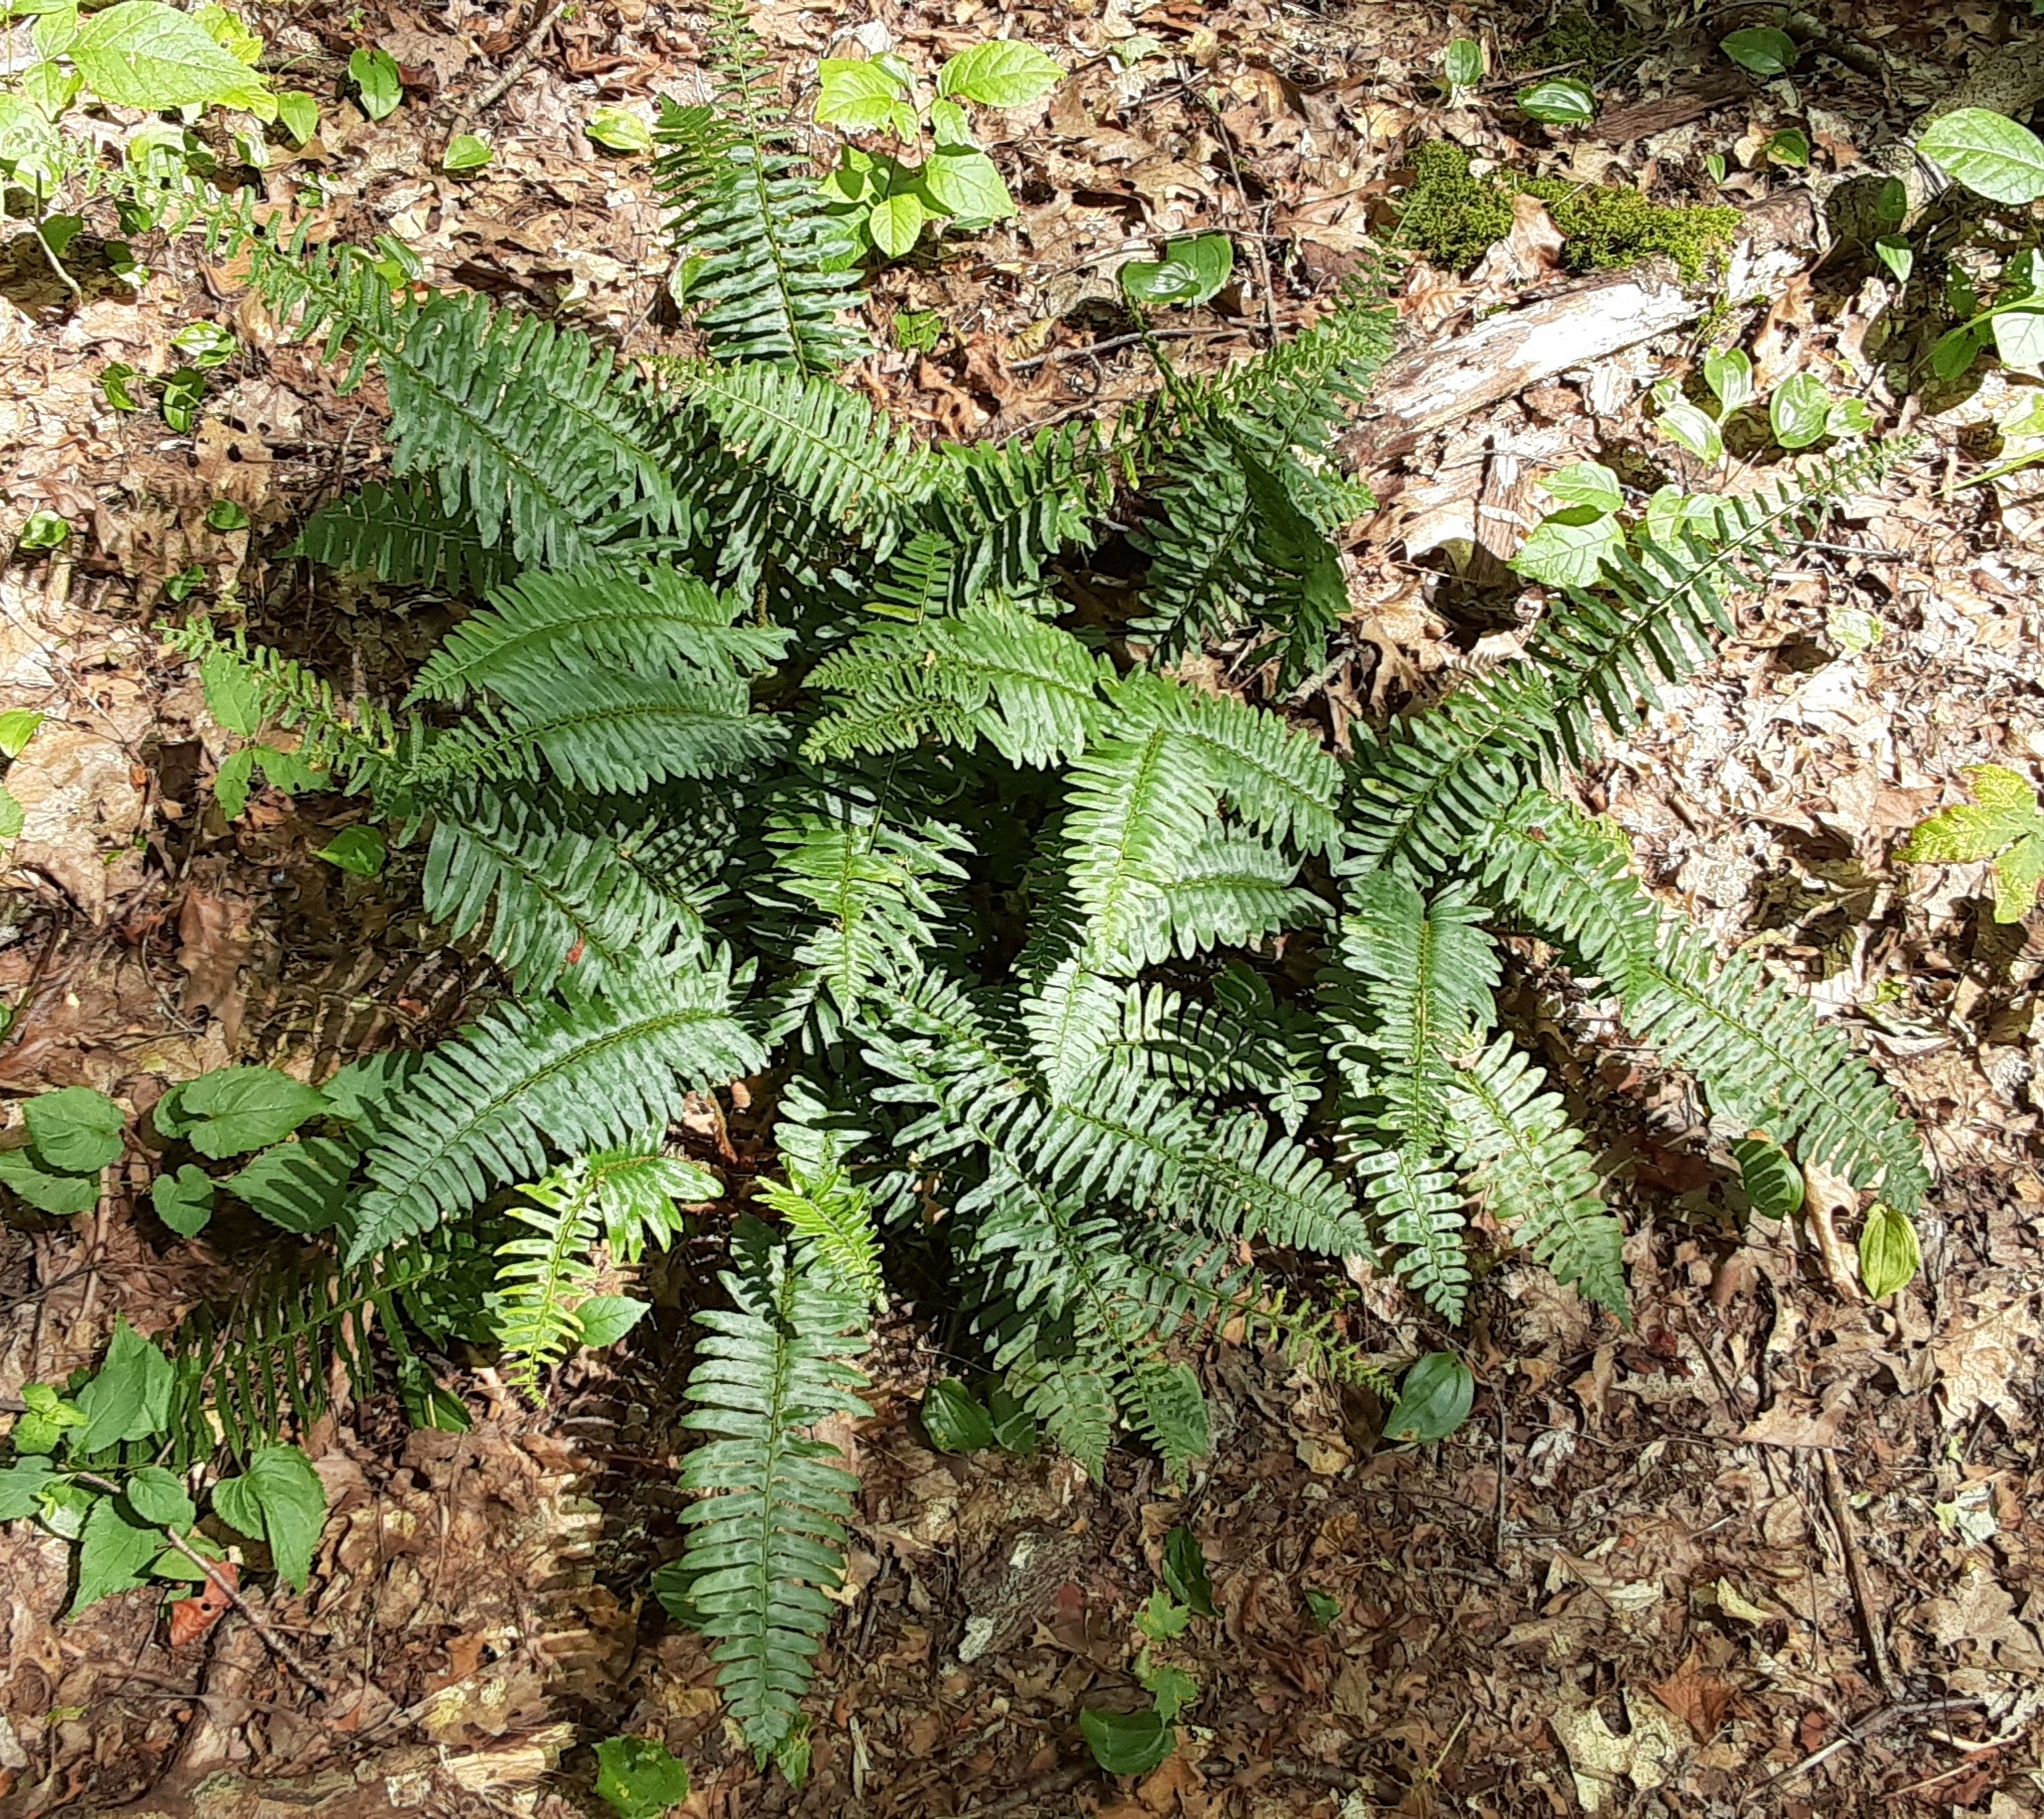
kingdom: Plantae
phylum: Tracheophyta
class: Polypodiopsida
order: Polypodiales
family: Dryopteridaceae
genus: Polystichum
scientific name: Polystichum acrostichoides
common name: Christmas fern
